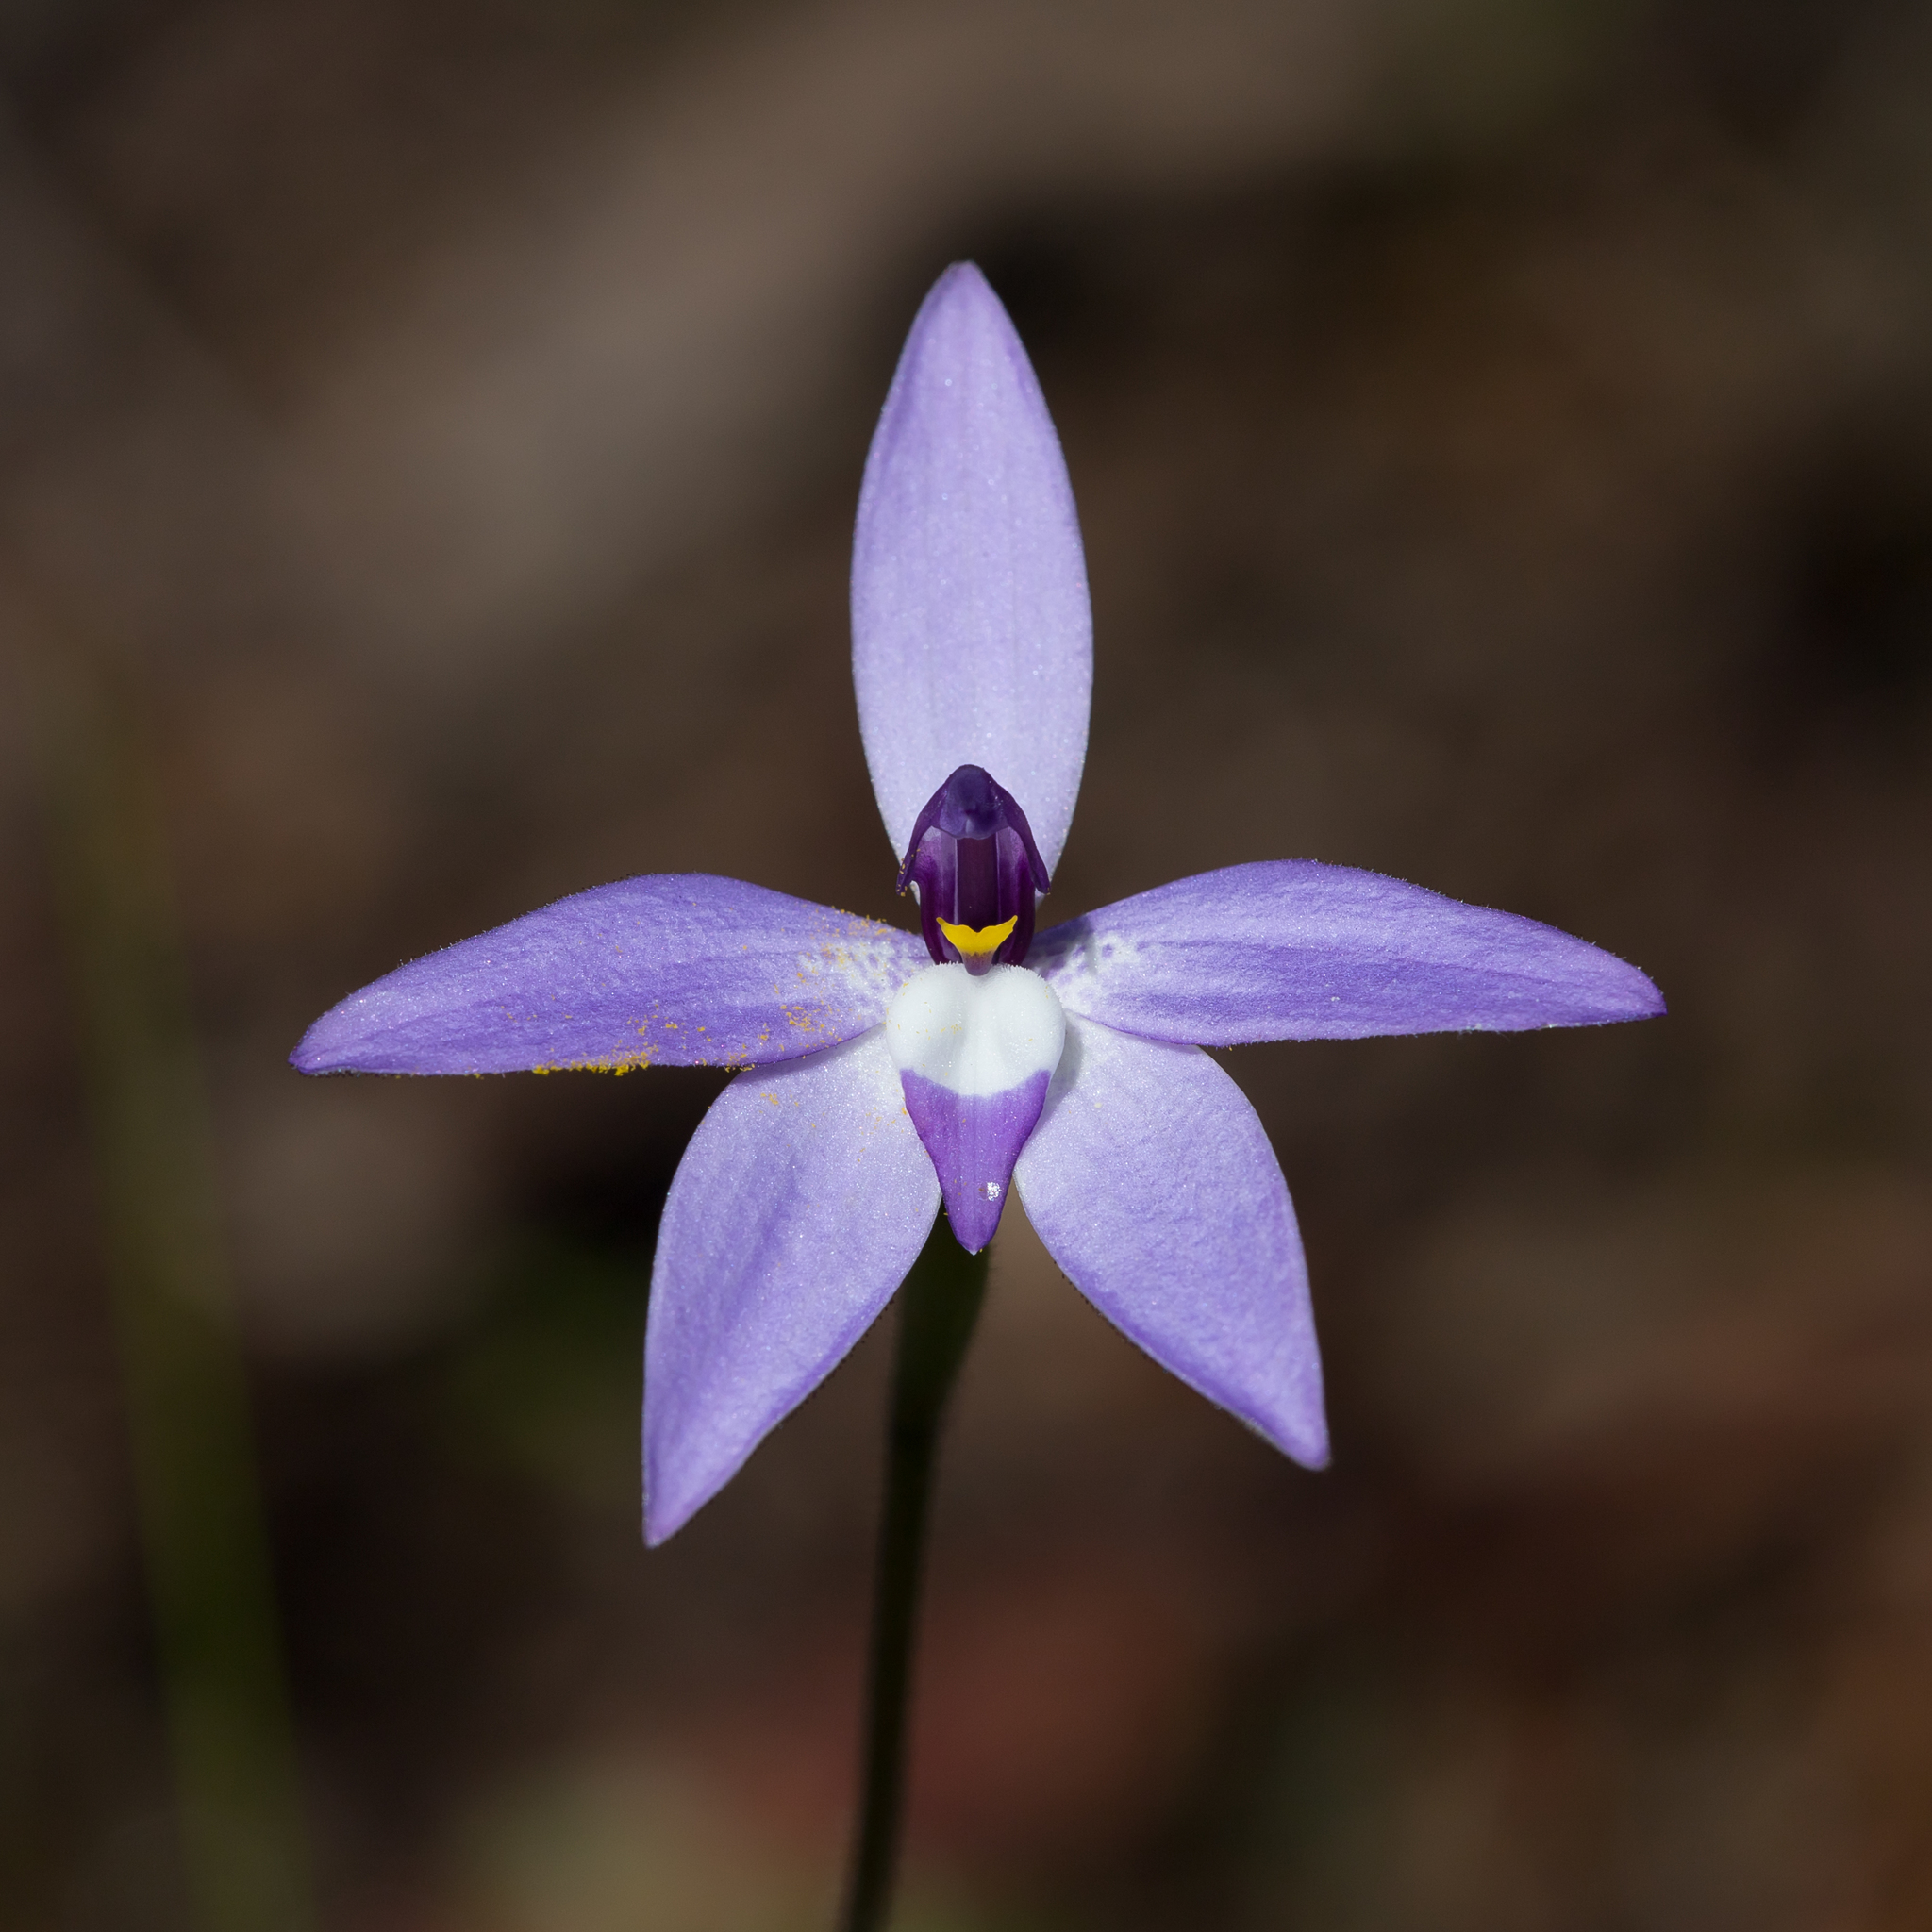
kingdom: Plantae
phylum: Tracheophyta
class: Liliopsida
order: Asparagales
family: Orchidaceae
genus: Caladenia
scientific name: Caladenia major
